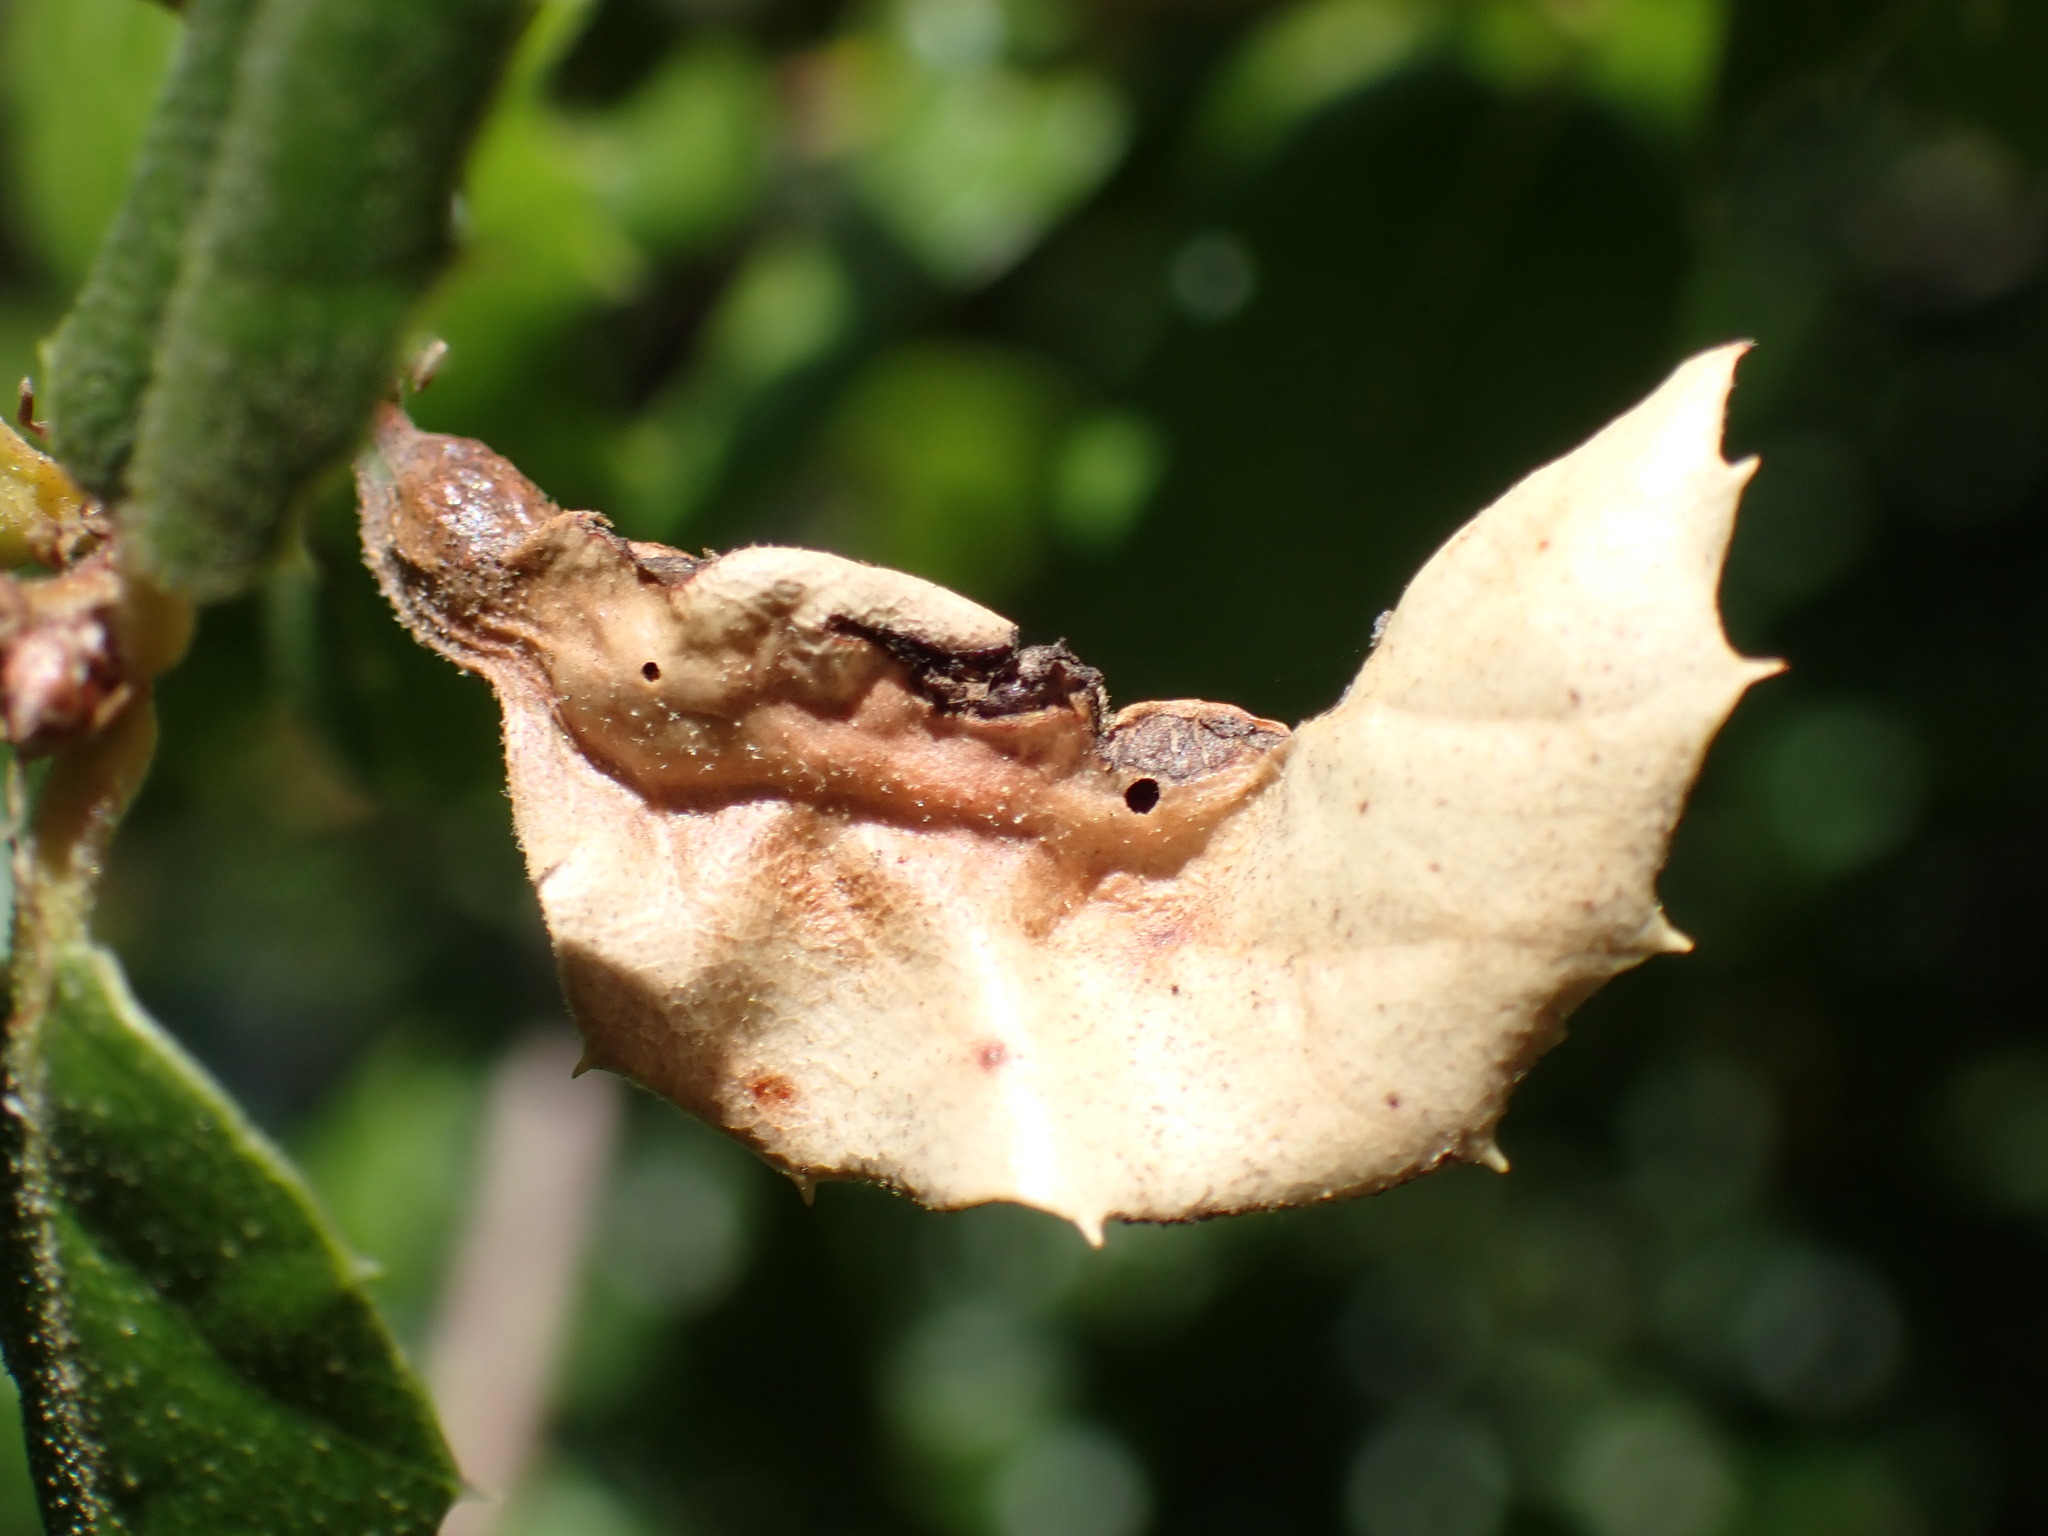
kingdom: Animalia
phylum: Arthropoda
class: Insecta
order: Hymenoptera
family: Cynipidae
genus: Melikaiella
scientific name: Melikaiella
